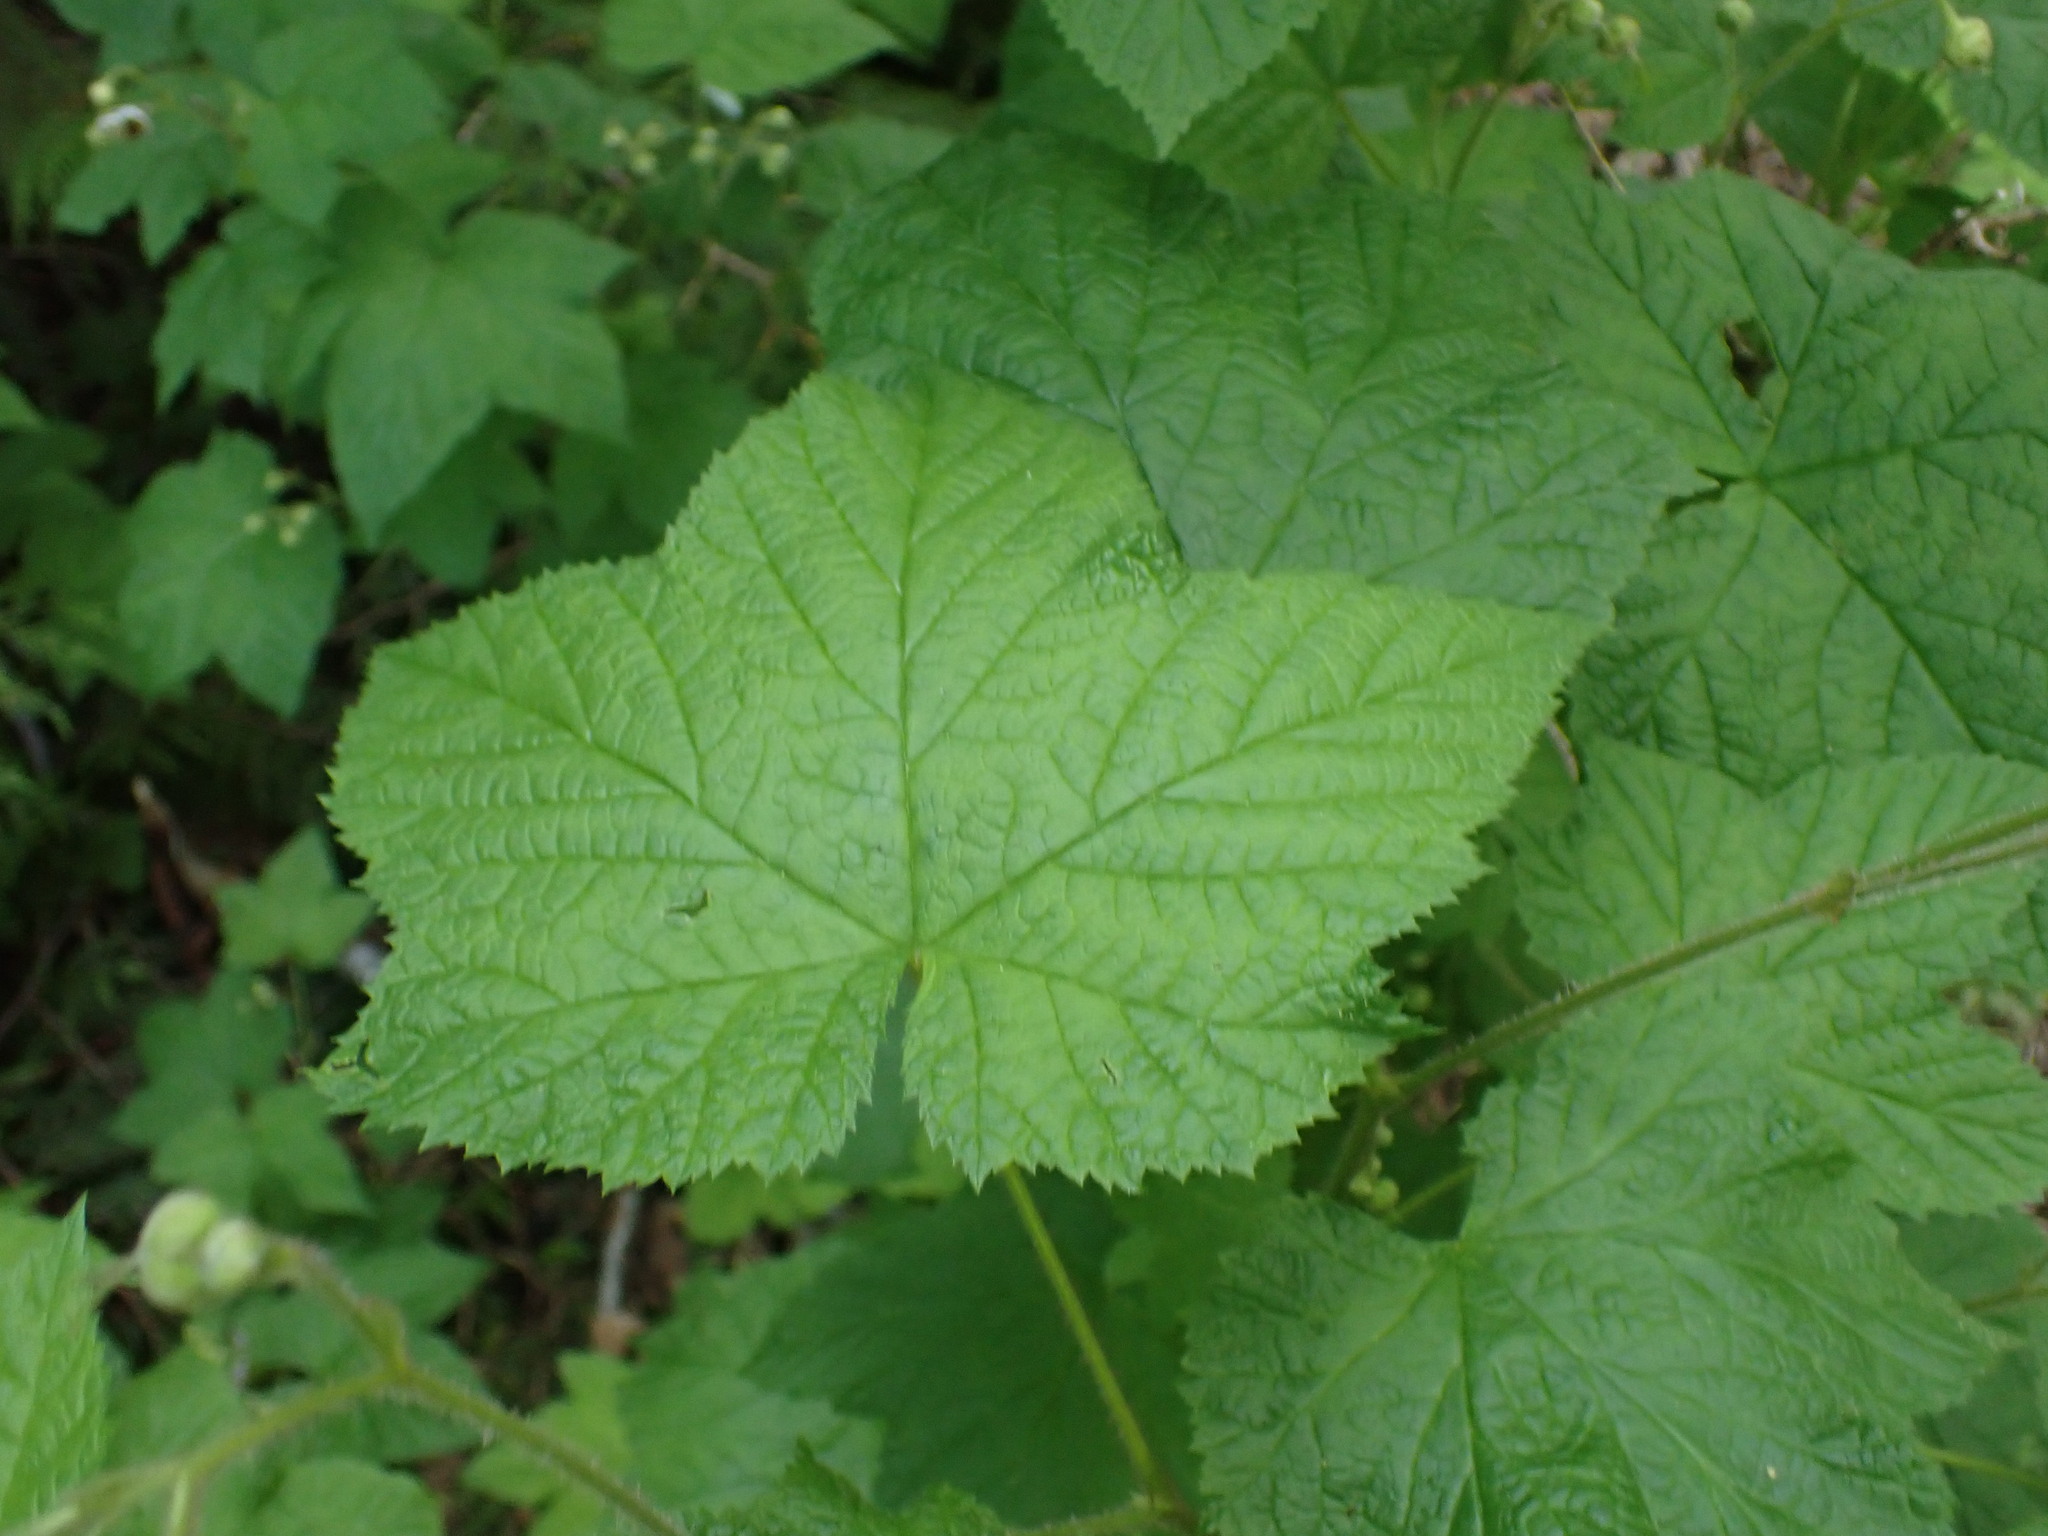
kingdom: Plantae
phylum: Tracheophyta
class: Magnoliopsida
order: Rosales
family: Rosaceae
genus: Rubus
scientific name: Rubus parviflorus
